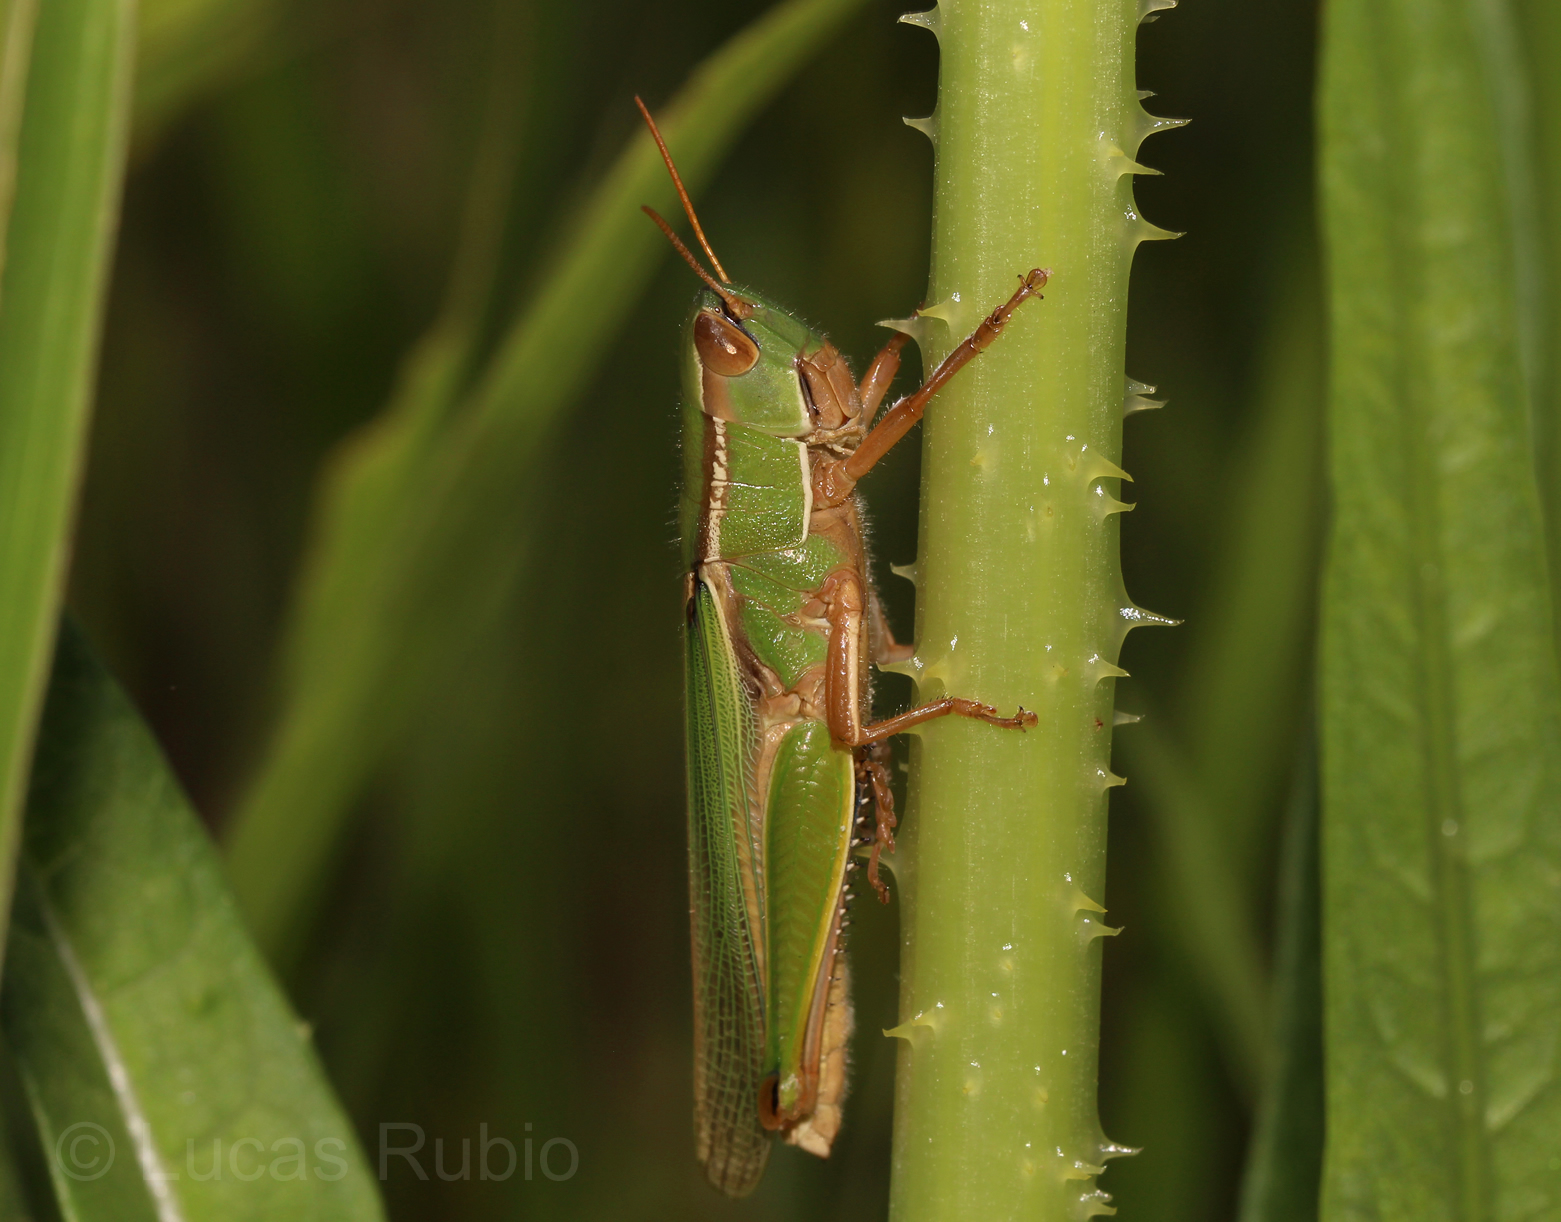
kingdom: Animalia
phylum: Arthropoda
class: Insecta
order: Orthoptera
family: Acrididae
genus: Aleuas
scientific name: Aleuas lineatus
